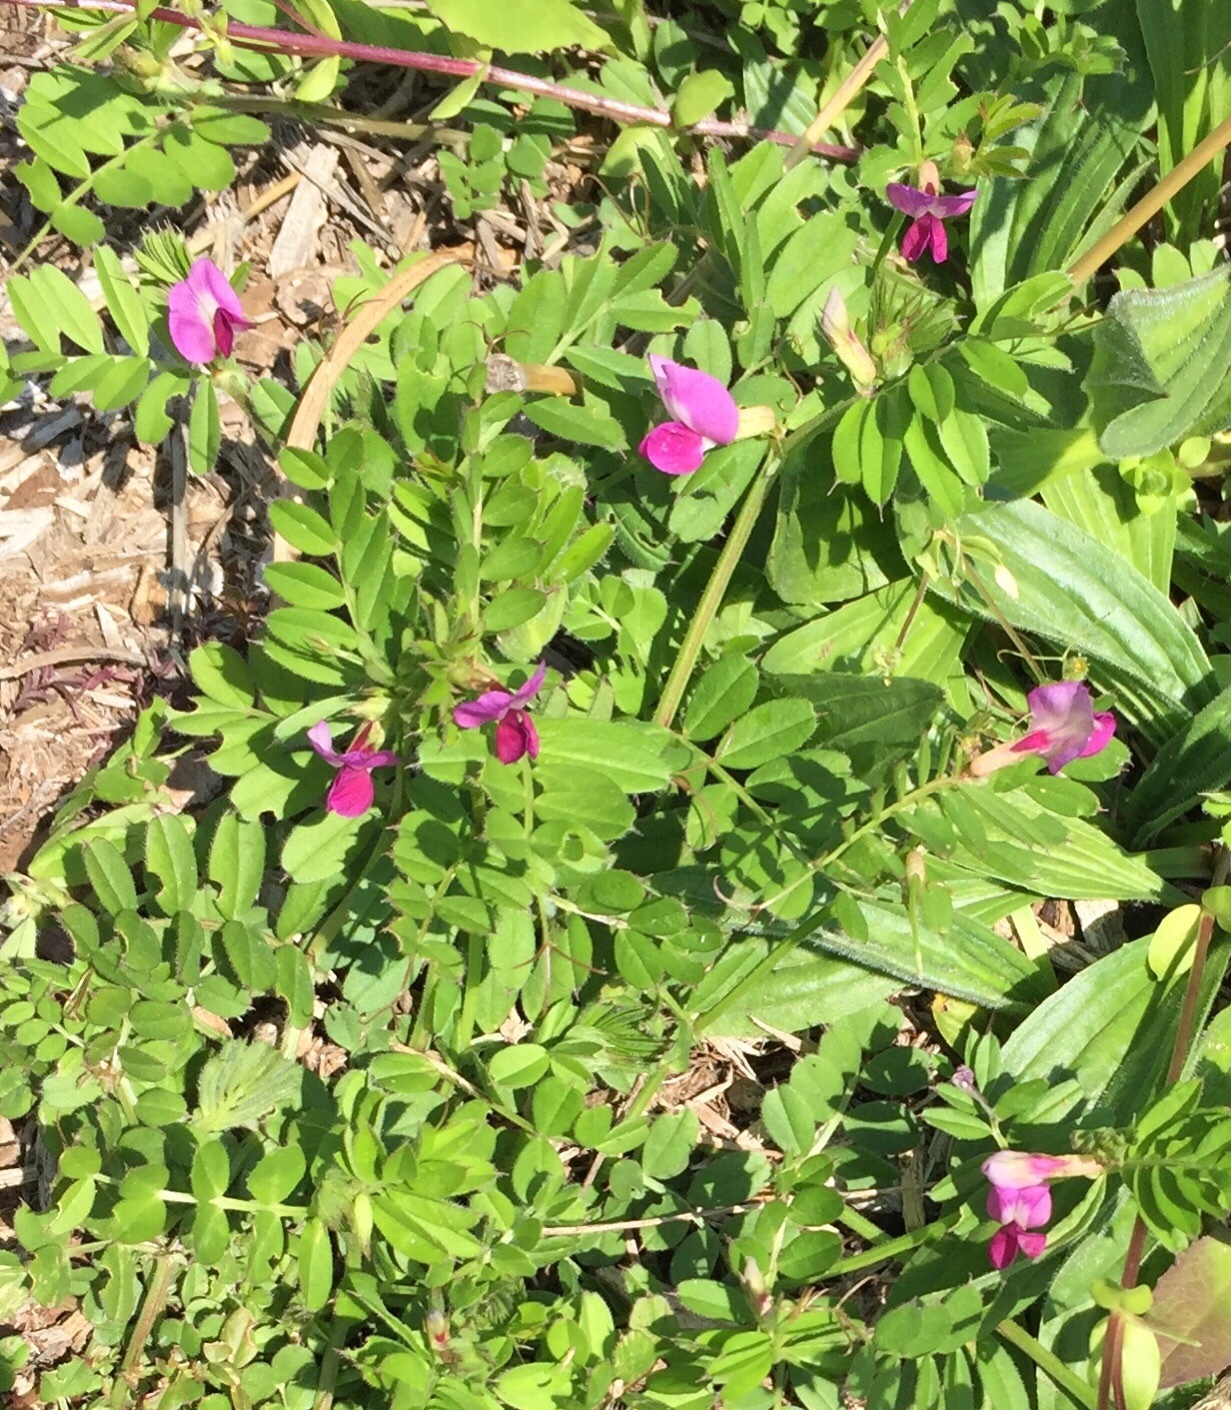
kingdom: Plantae
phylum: Tracheophyta
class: Magnoliopsida
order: Fabales
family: Fabaceae
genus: Vicia
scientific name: Vicia sativa
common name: Garden vetch
